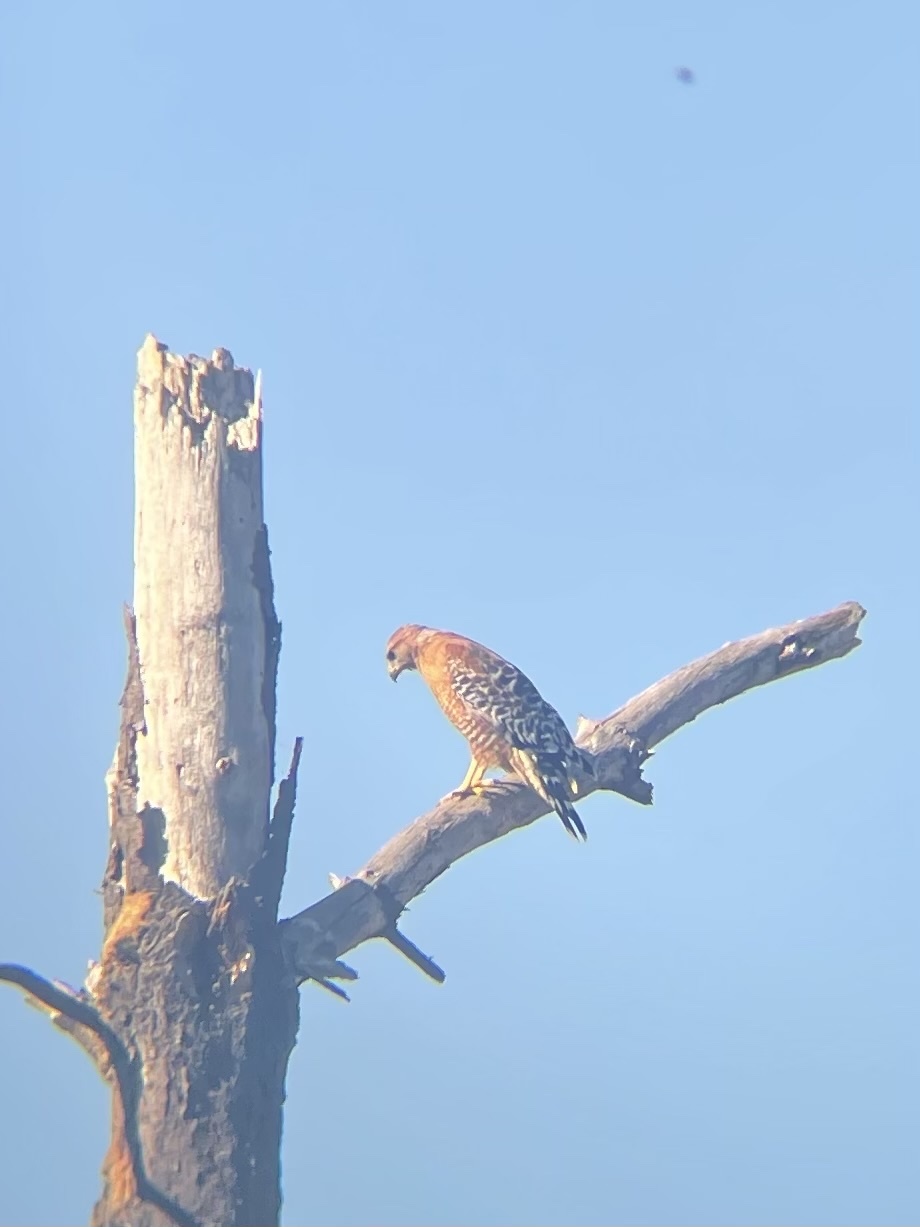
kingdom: Animalia
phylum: Chordata
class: Aves
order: Accipitriformes
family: Accipitridae
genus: Buteo
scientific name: Buteo lineatus
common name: Red-shouldered hawk
